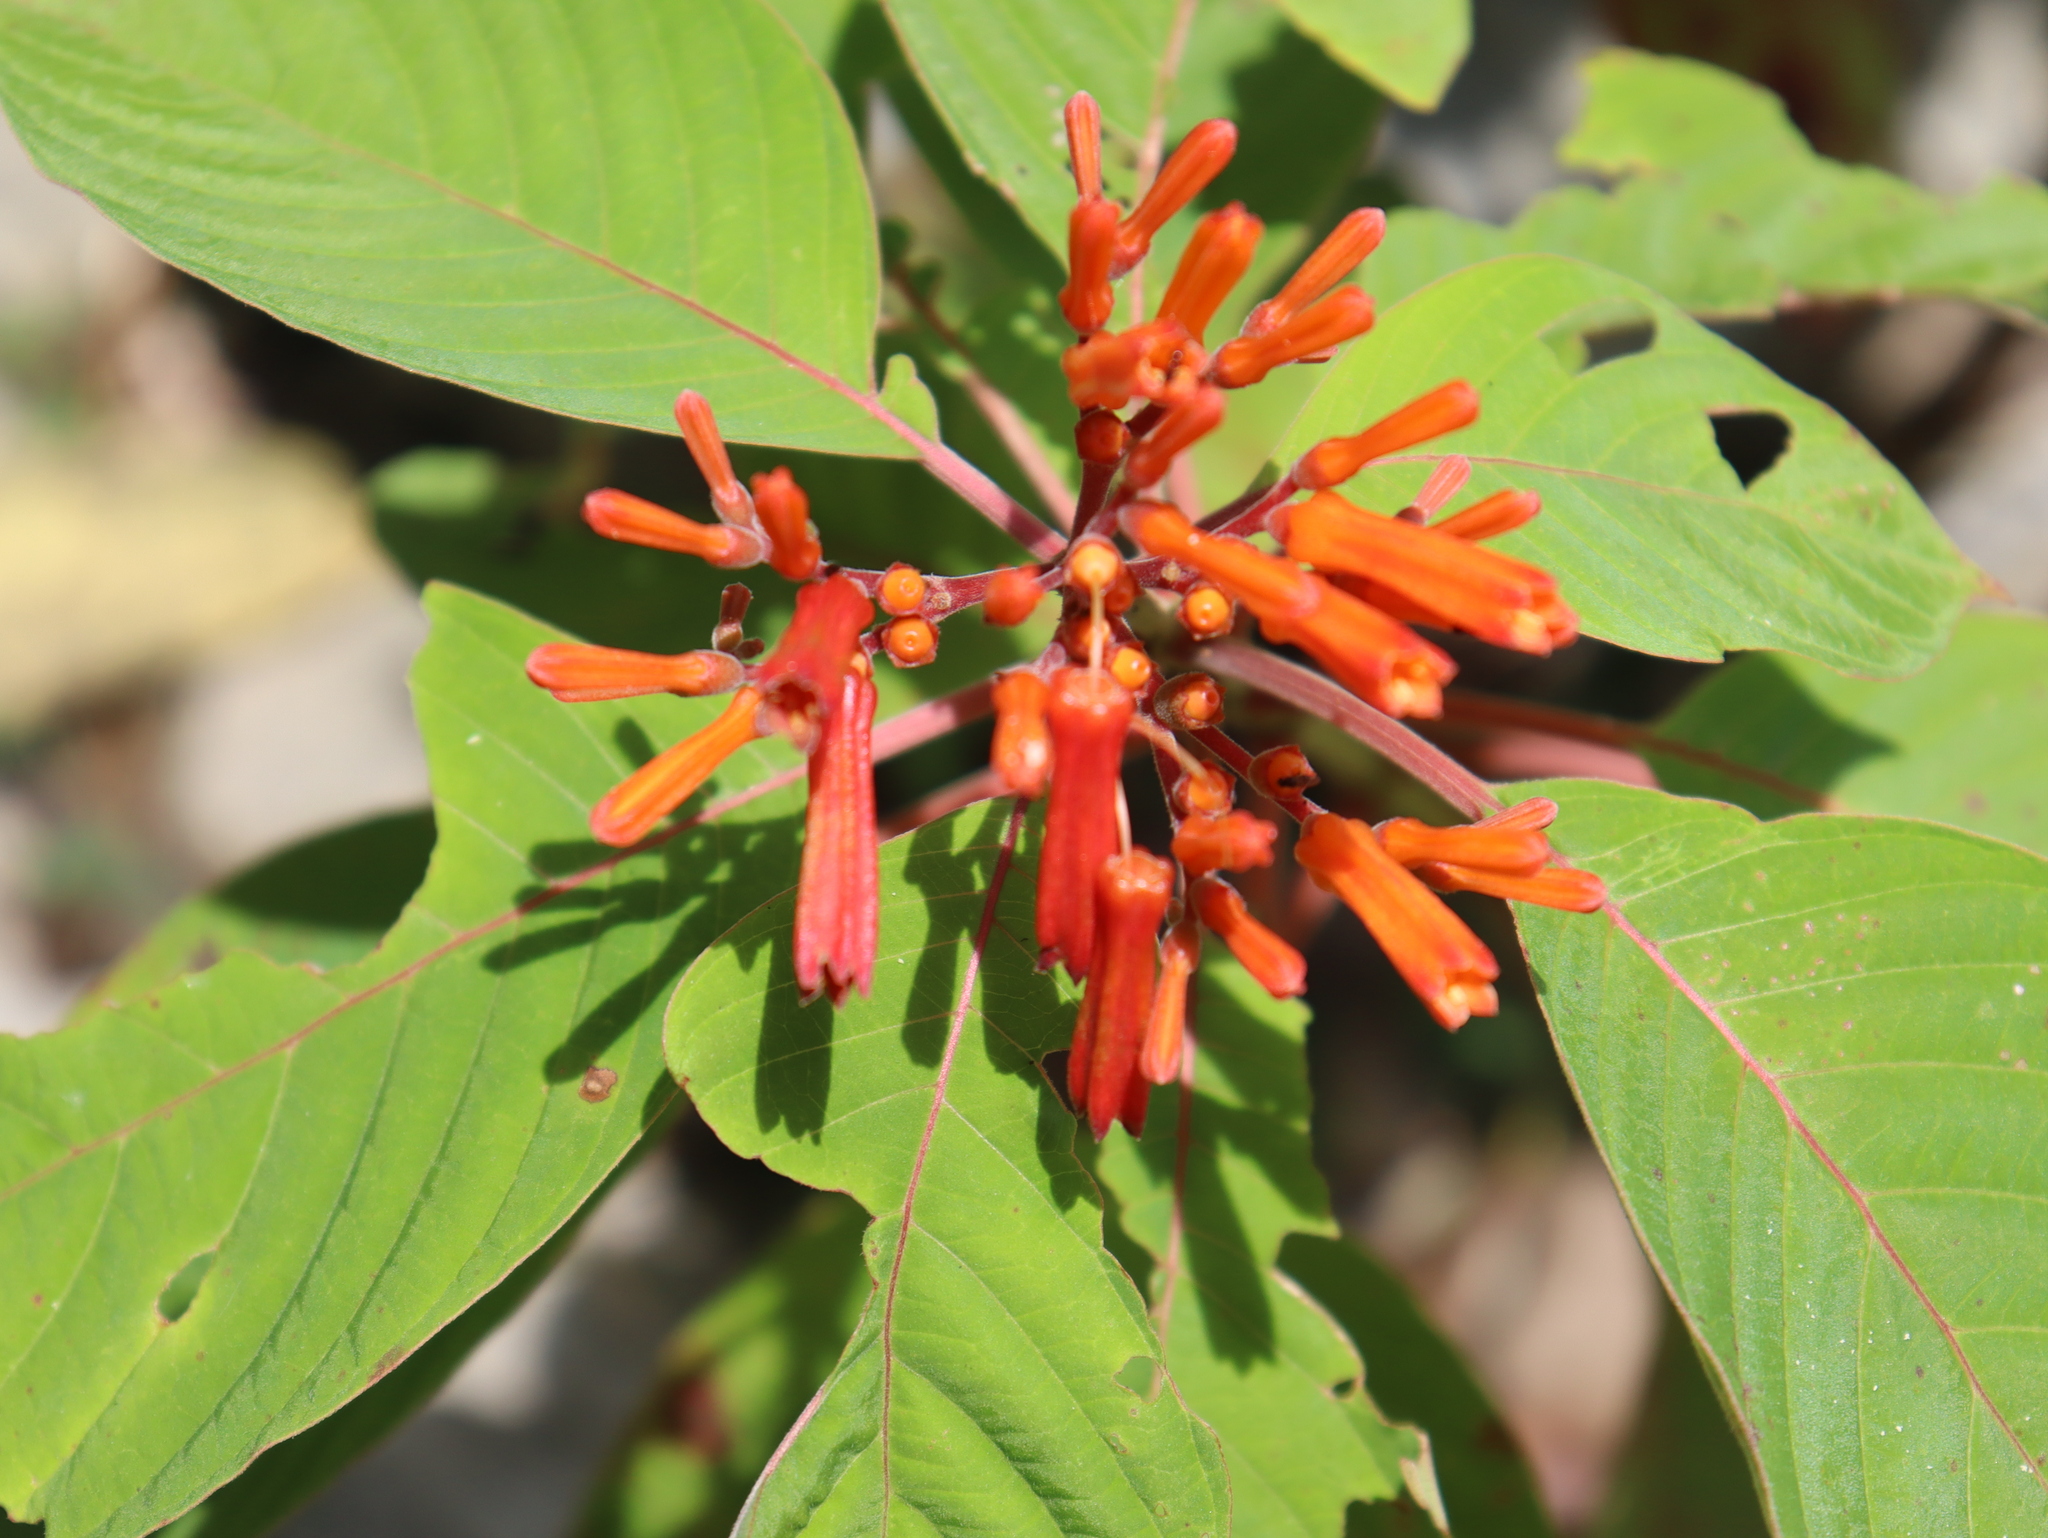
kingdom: Plantae
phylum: Tracheophyta
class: Magnoliopsida
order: Gentianales
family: Rubiaceae
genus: Hamelia
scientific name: Hamelia patens
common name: Redhead
